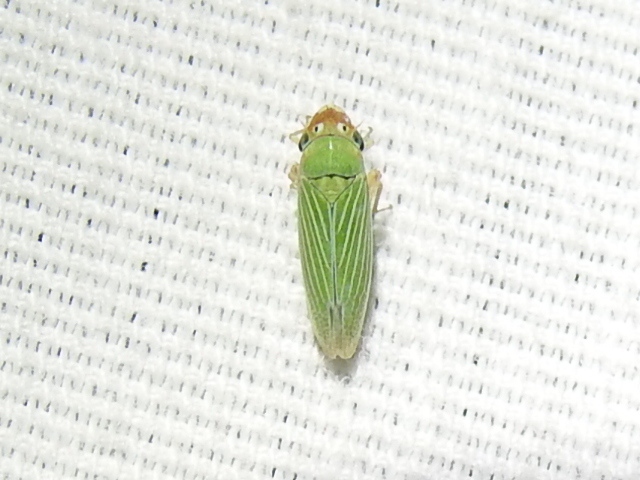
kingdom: Animalia
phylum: Arthropoda
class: Insecta
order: Hemiptera
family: Cicadellidae
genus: Xyphon
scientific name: Xyphon flaviceps
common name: Yellowheaded leafhopper
